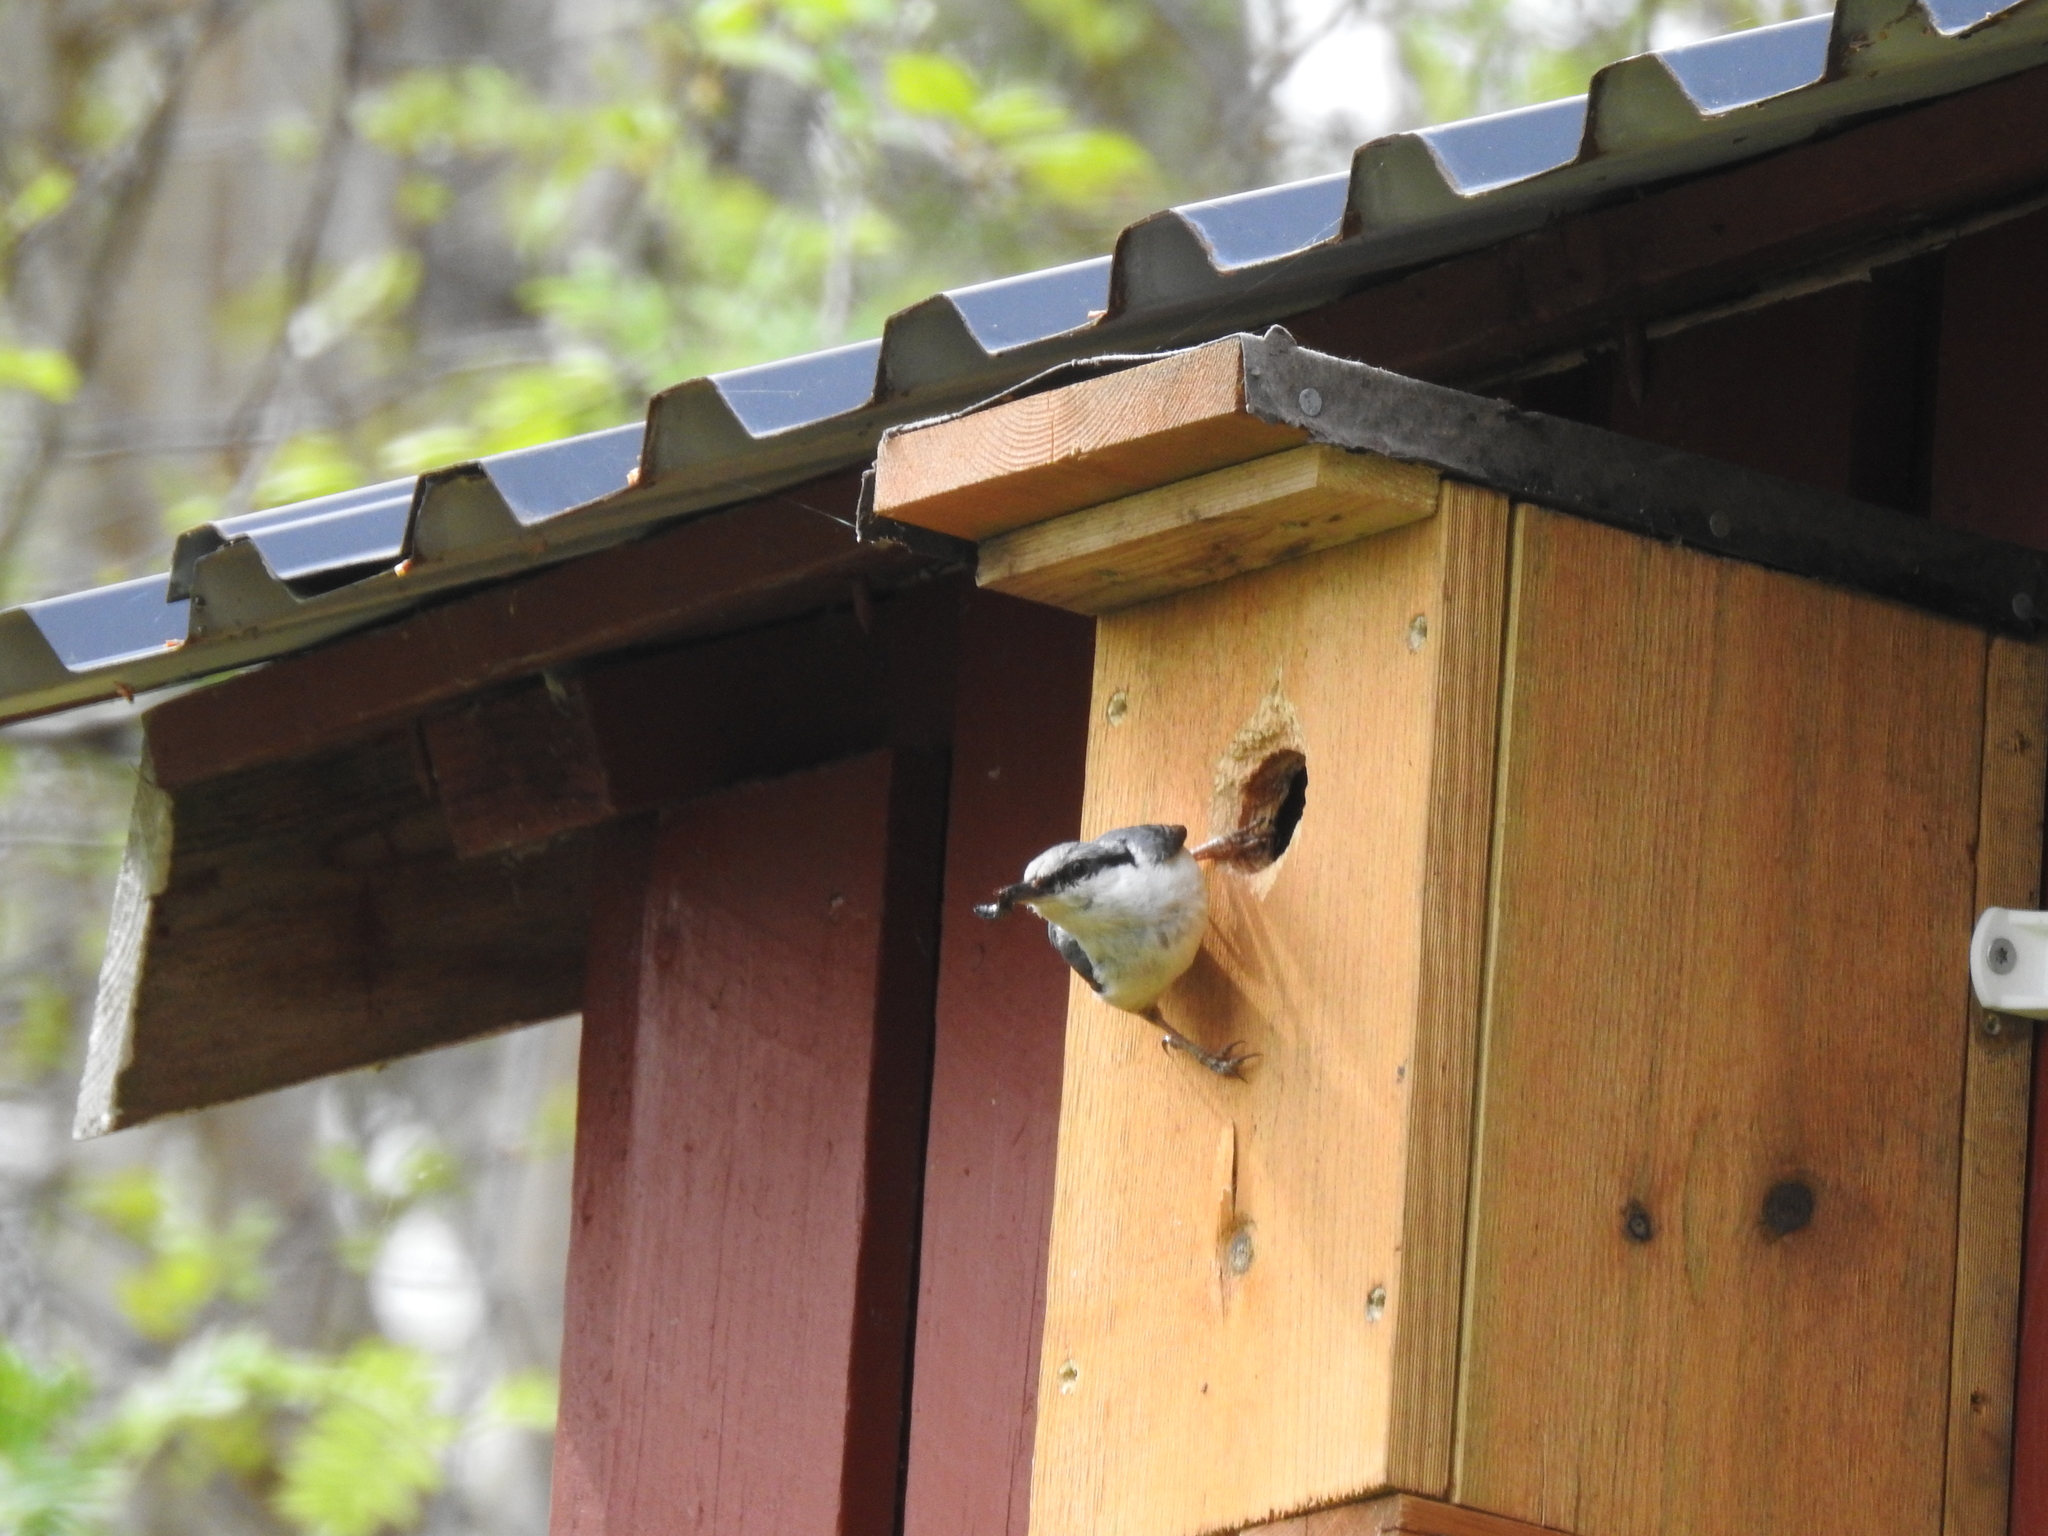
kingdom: Animalia
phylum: Chordata
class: Aves
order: Passeriformes
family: Sittidae
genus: Sitta
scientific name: Sitta europaea
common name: Eurasian nuthatch
